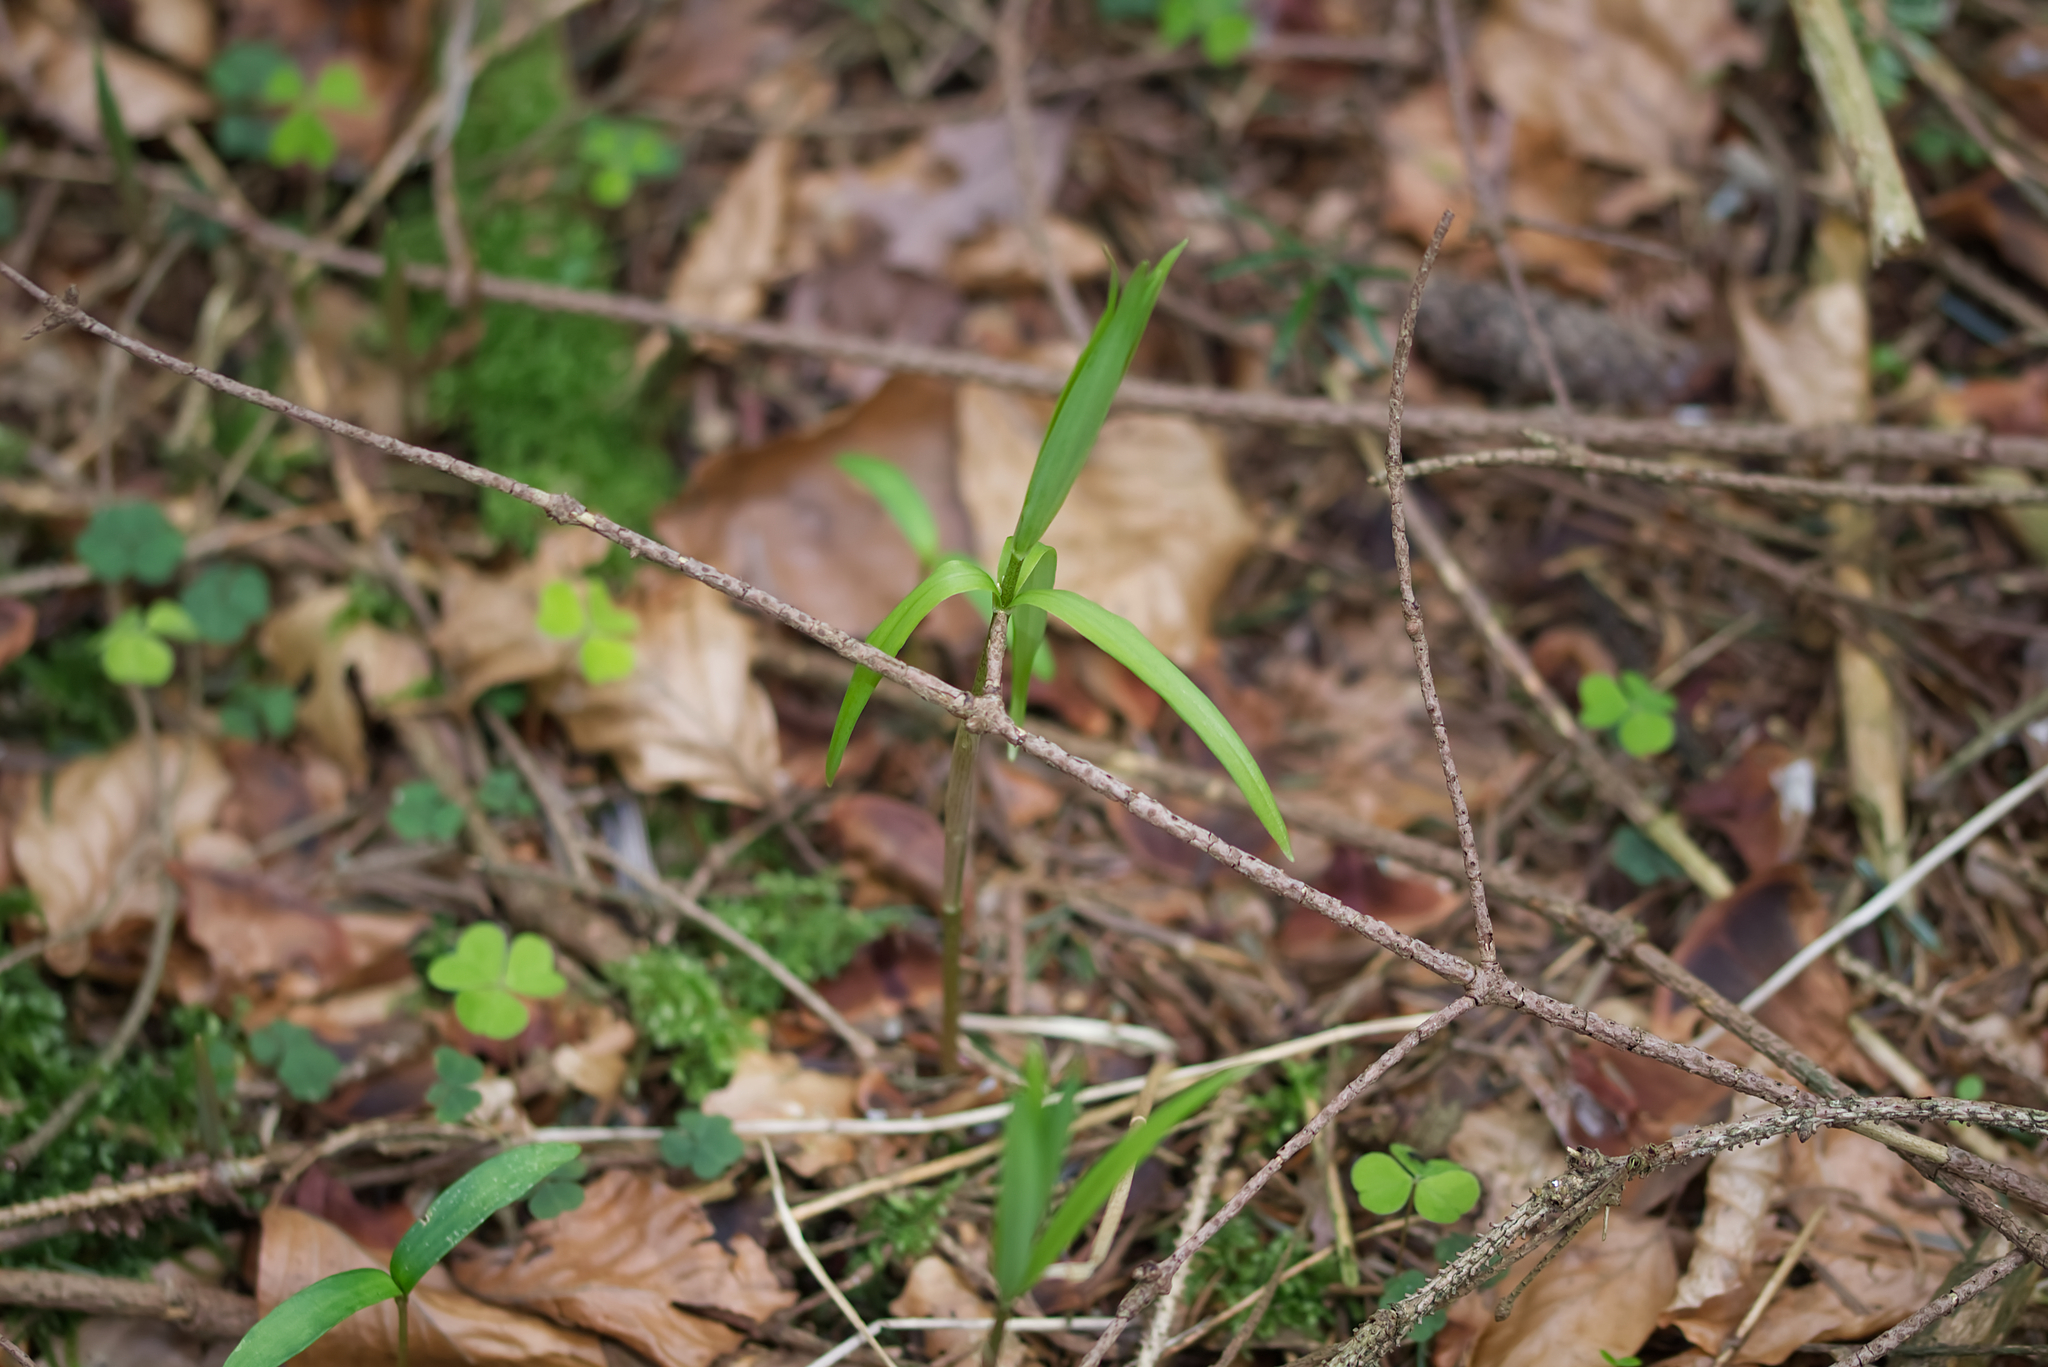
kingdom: Plantae
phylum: Tracheophyta
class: Liliopsida
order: Asparagales
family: Asparagaceae
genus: Polygonatum
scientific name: Polygonatum verticillatum
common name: Whorled solomon's-seal
